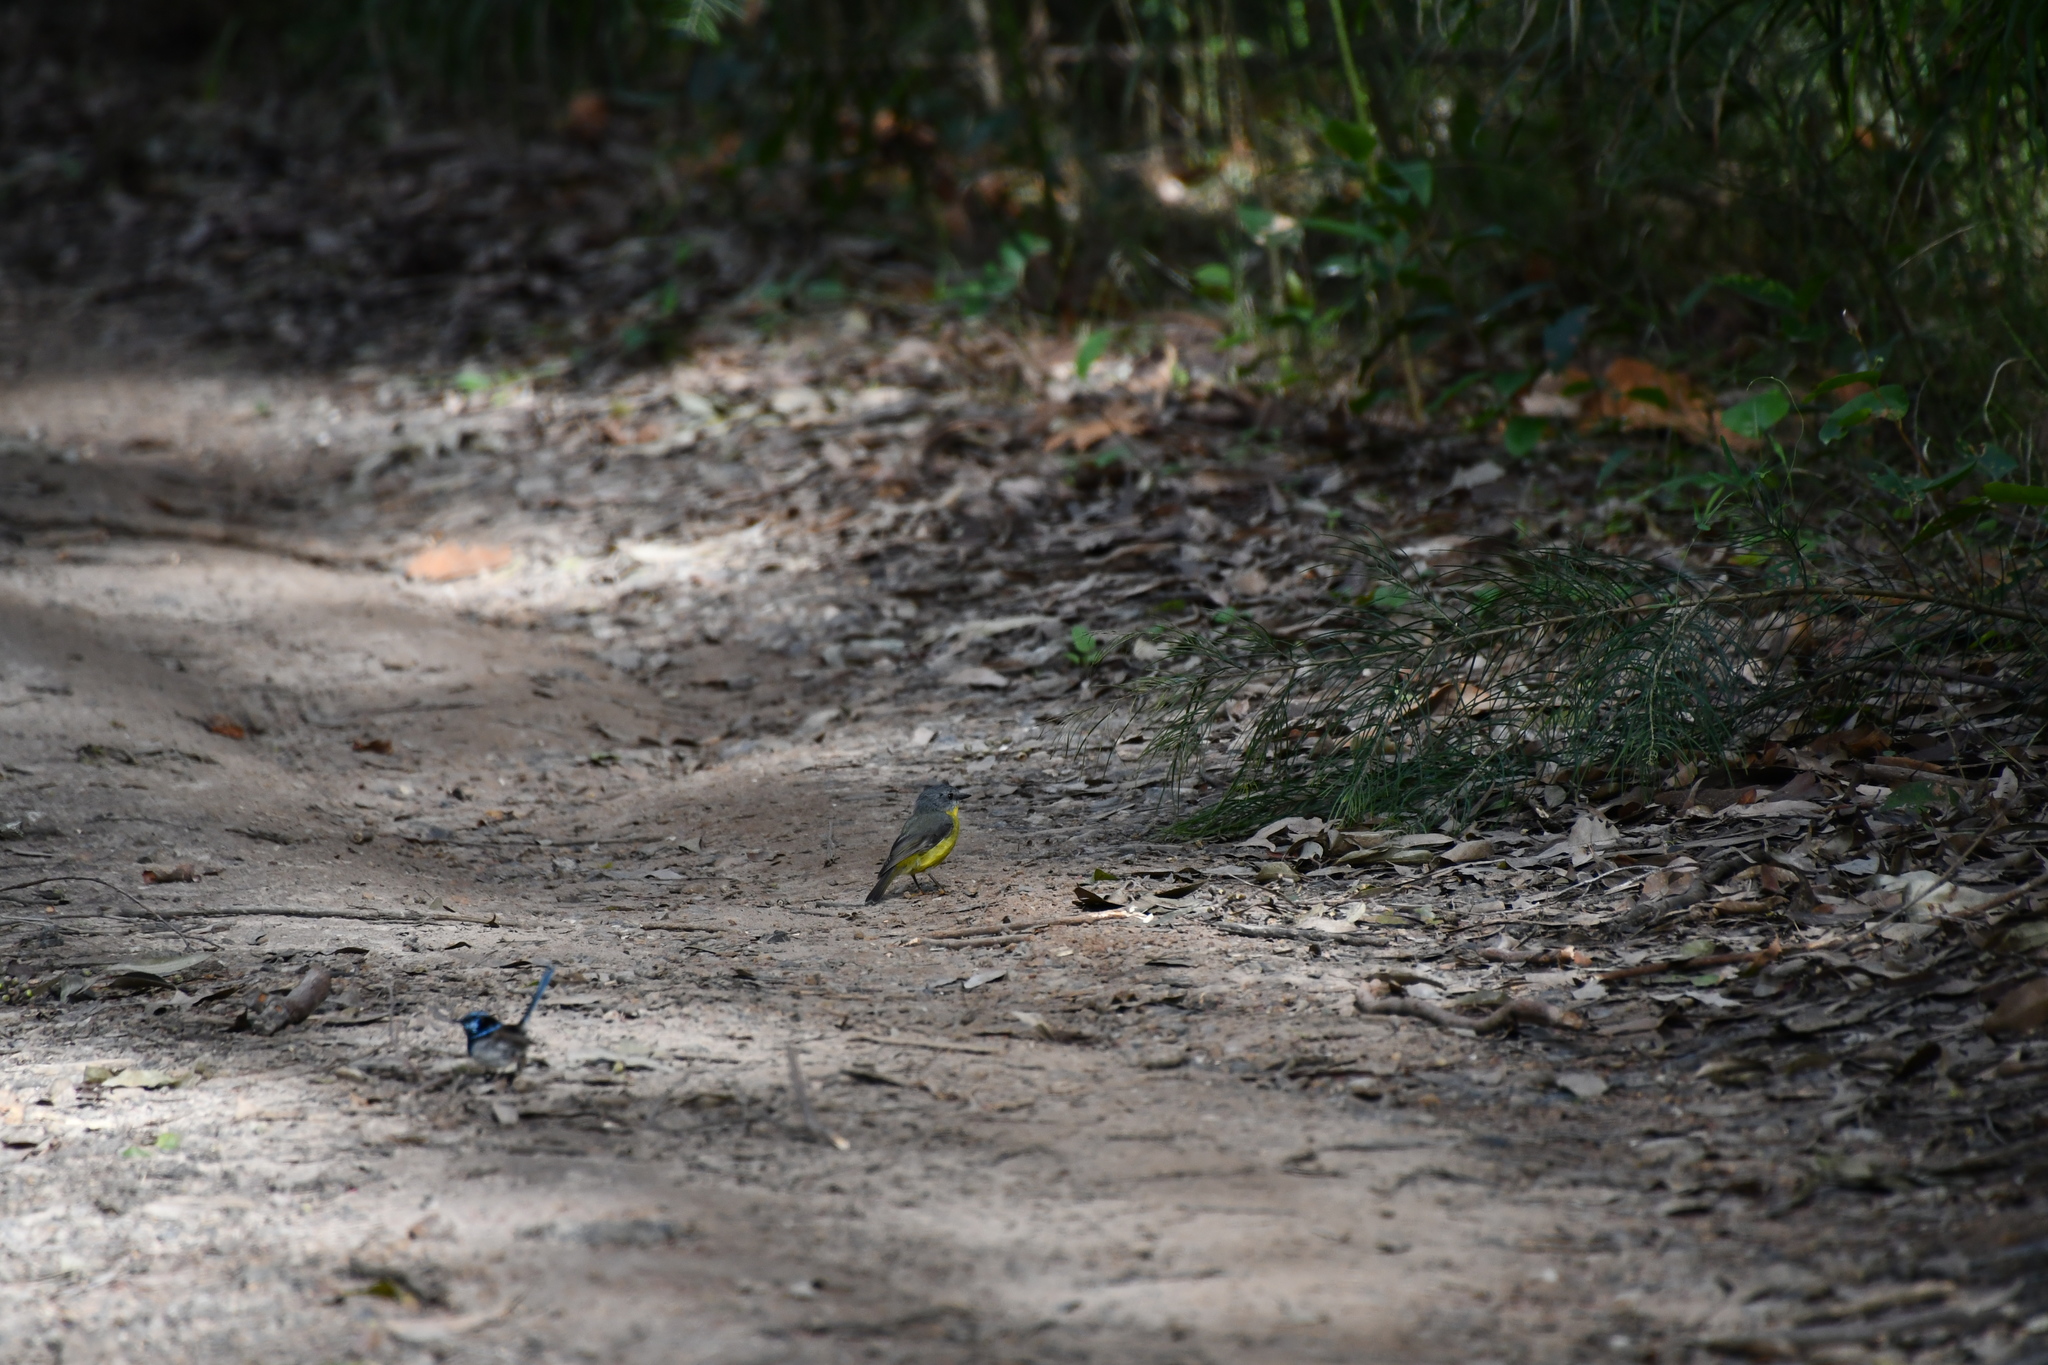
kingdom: Animalia
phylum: Chordata
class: Aves
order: Passeriformes
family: Petroicidae
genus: Eopsaltria
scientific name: Eopsaltria australis
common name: Eastern yellow robin
